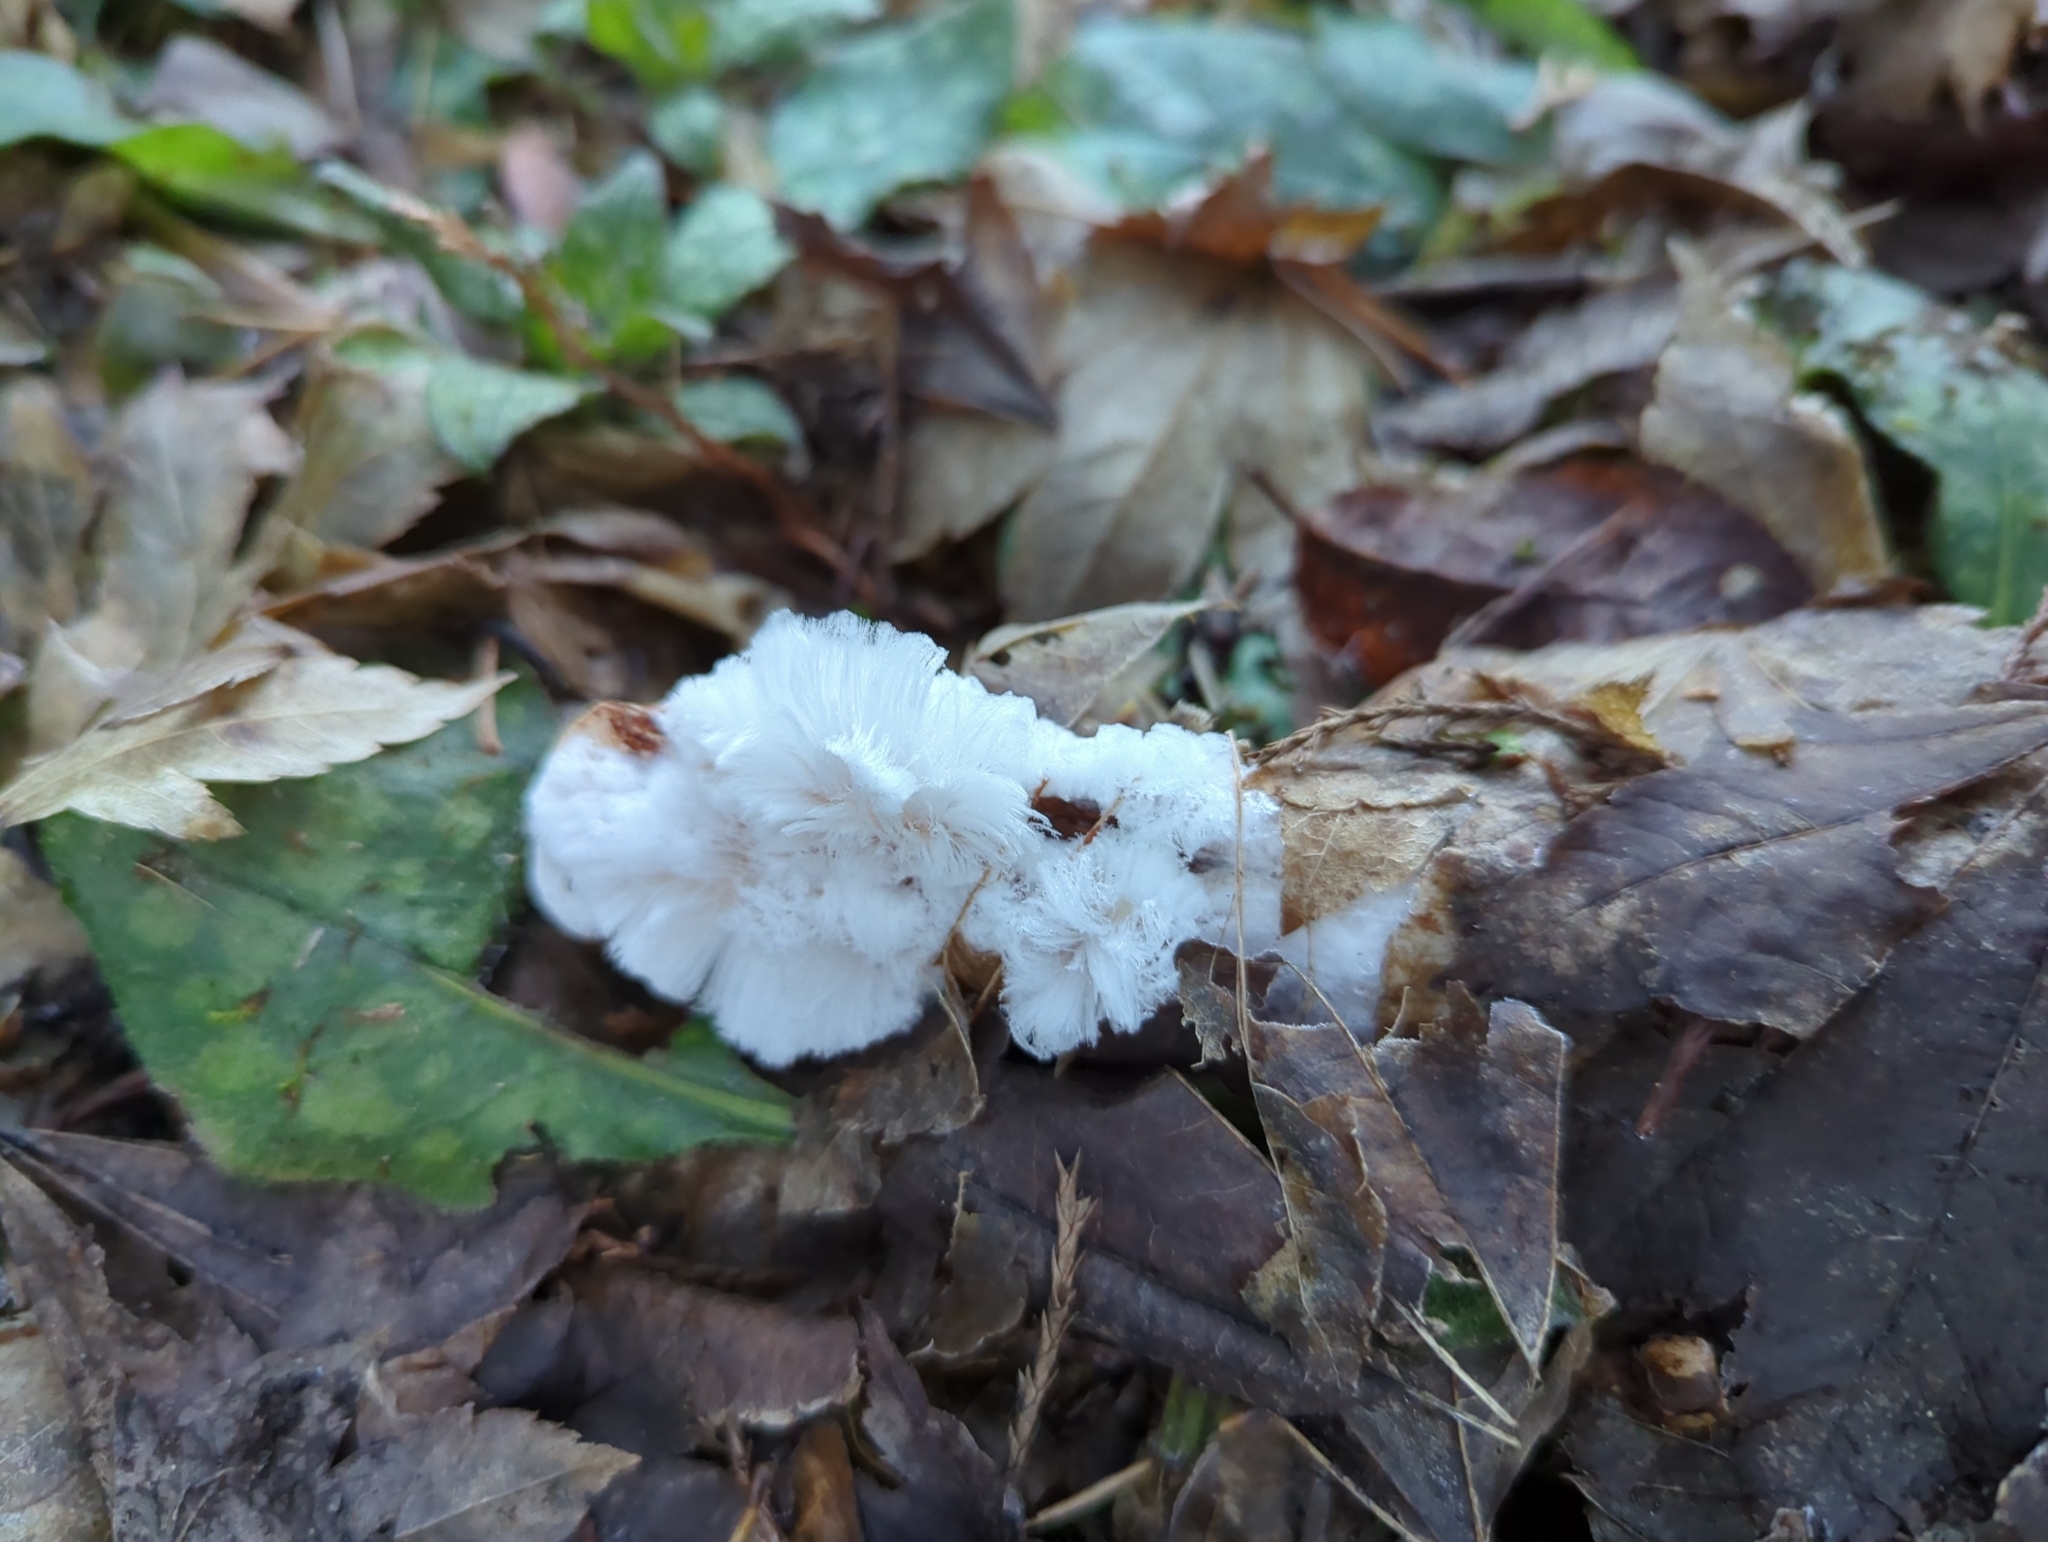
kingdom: Fungi
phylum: Basidiomycota
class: Agaricomycetes
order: Auriculariales
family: Auriculariaceae
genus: Exidiopsis
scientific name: Exidiopsis effusa
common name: Hair ice crust
